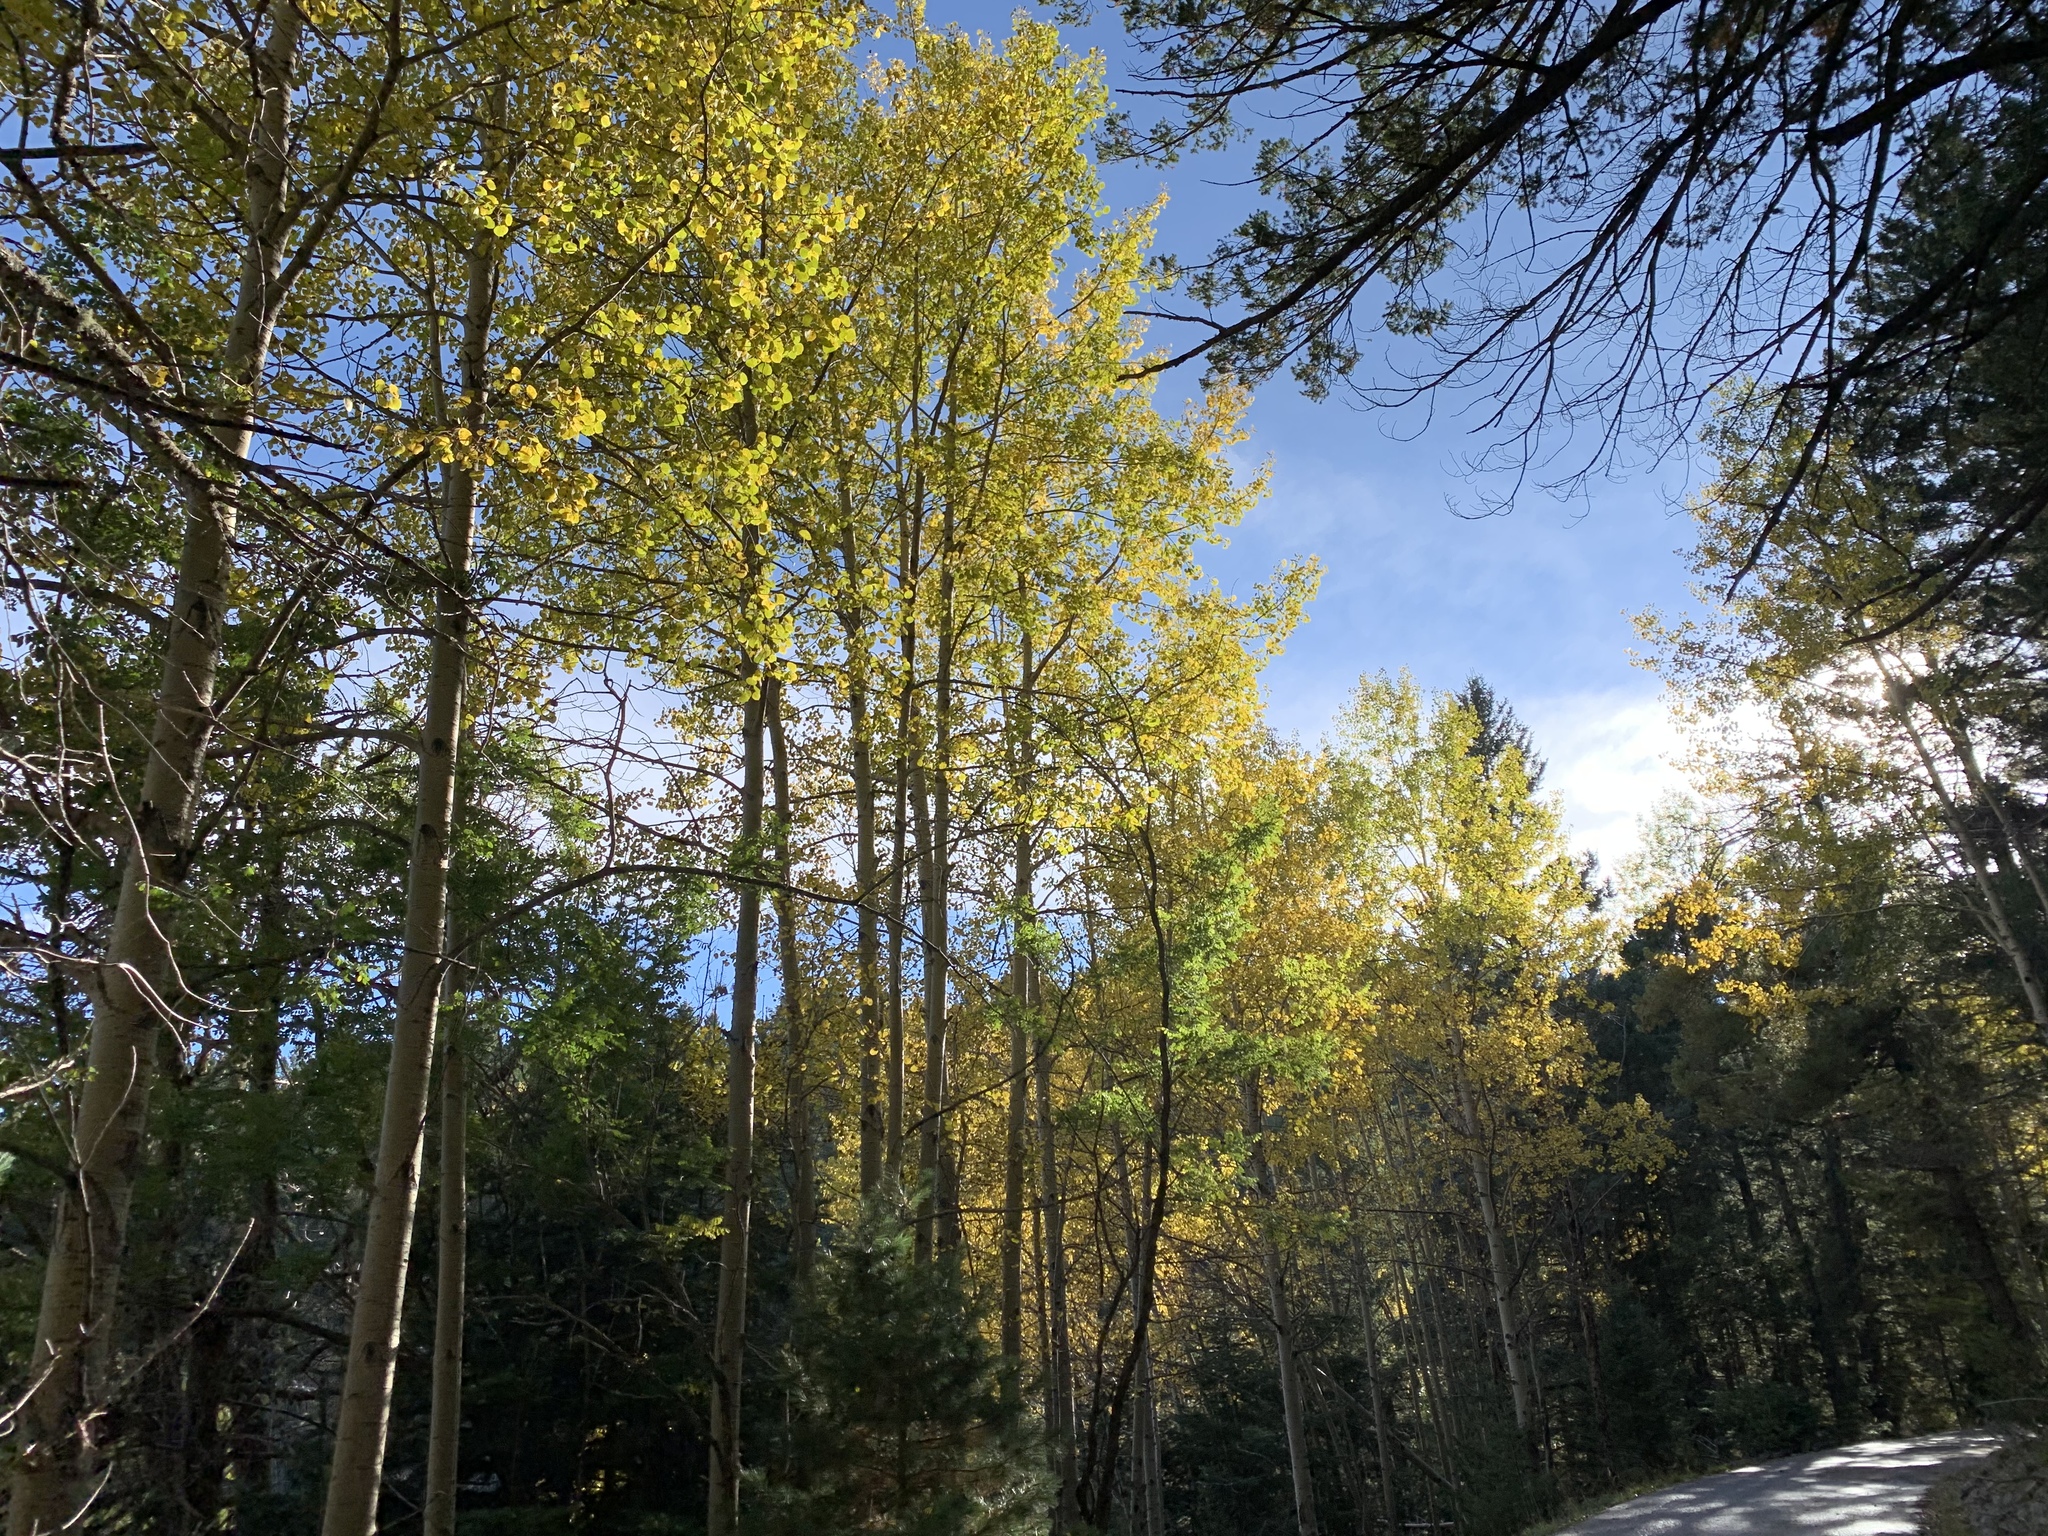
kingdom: Plantae
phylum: Tracheophyta
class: Magnoliopsida
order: Malpighiales
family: Salicaceae
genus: Populus
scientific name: Populus tremuloides
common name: Quaking aspen
